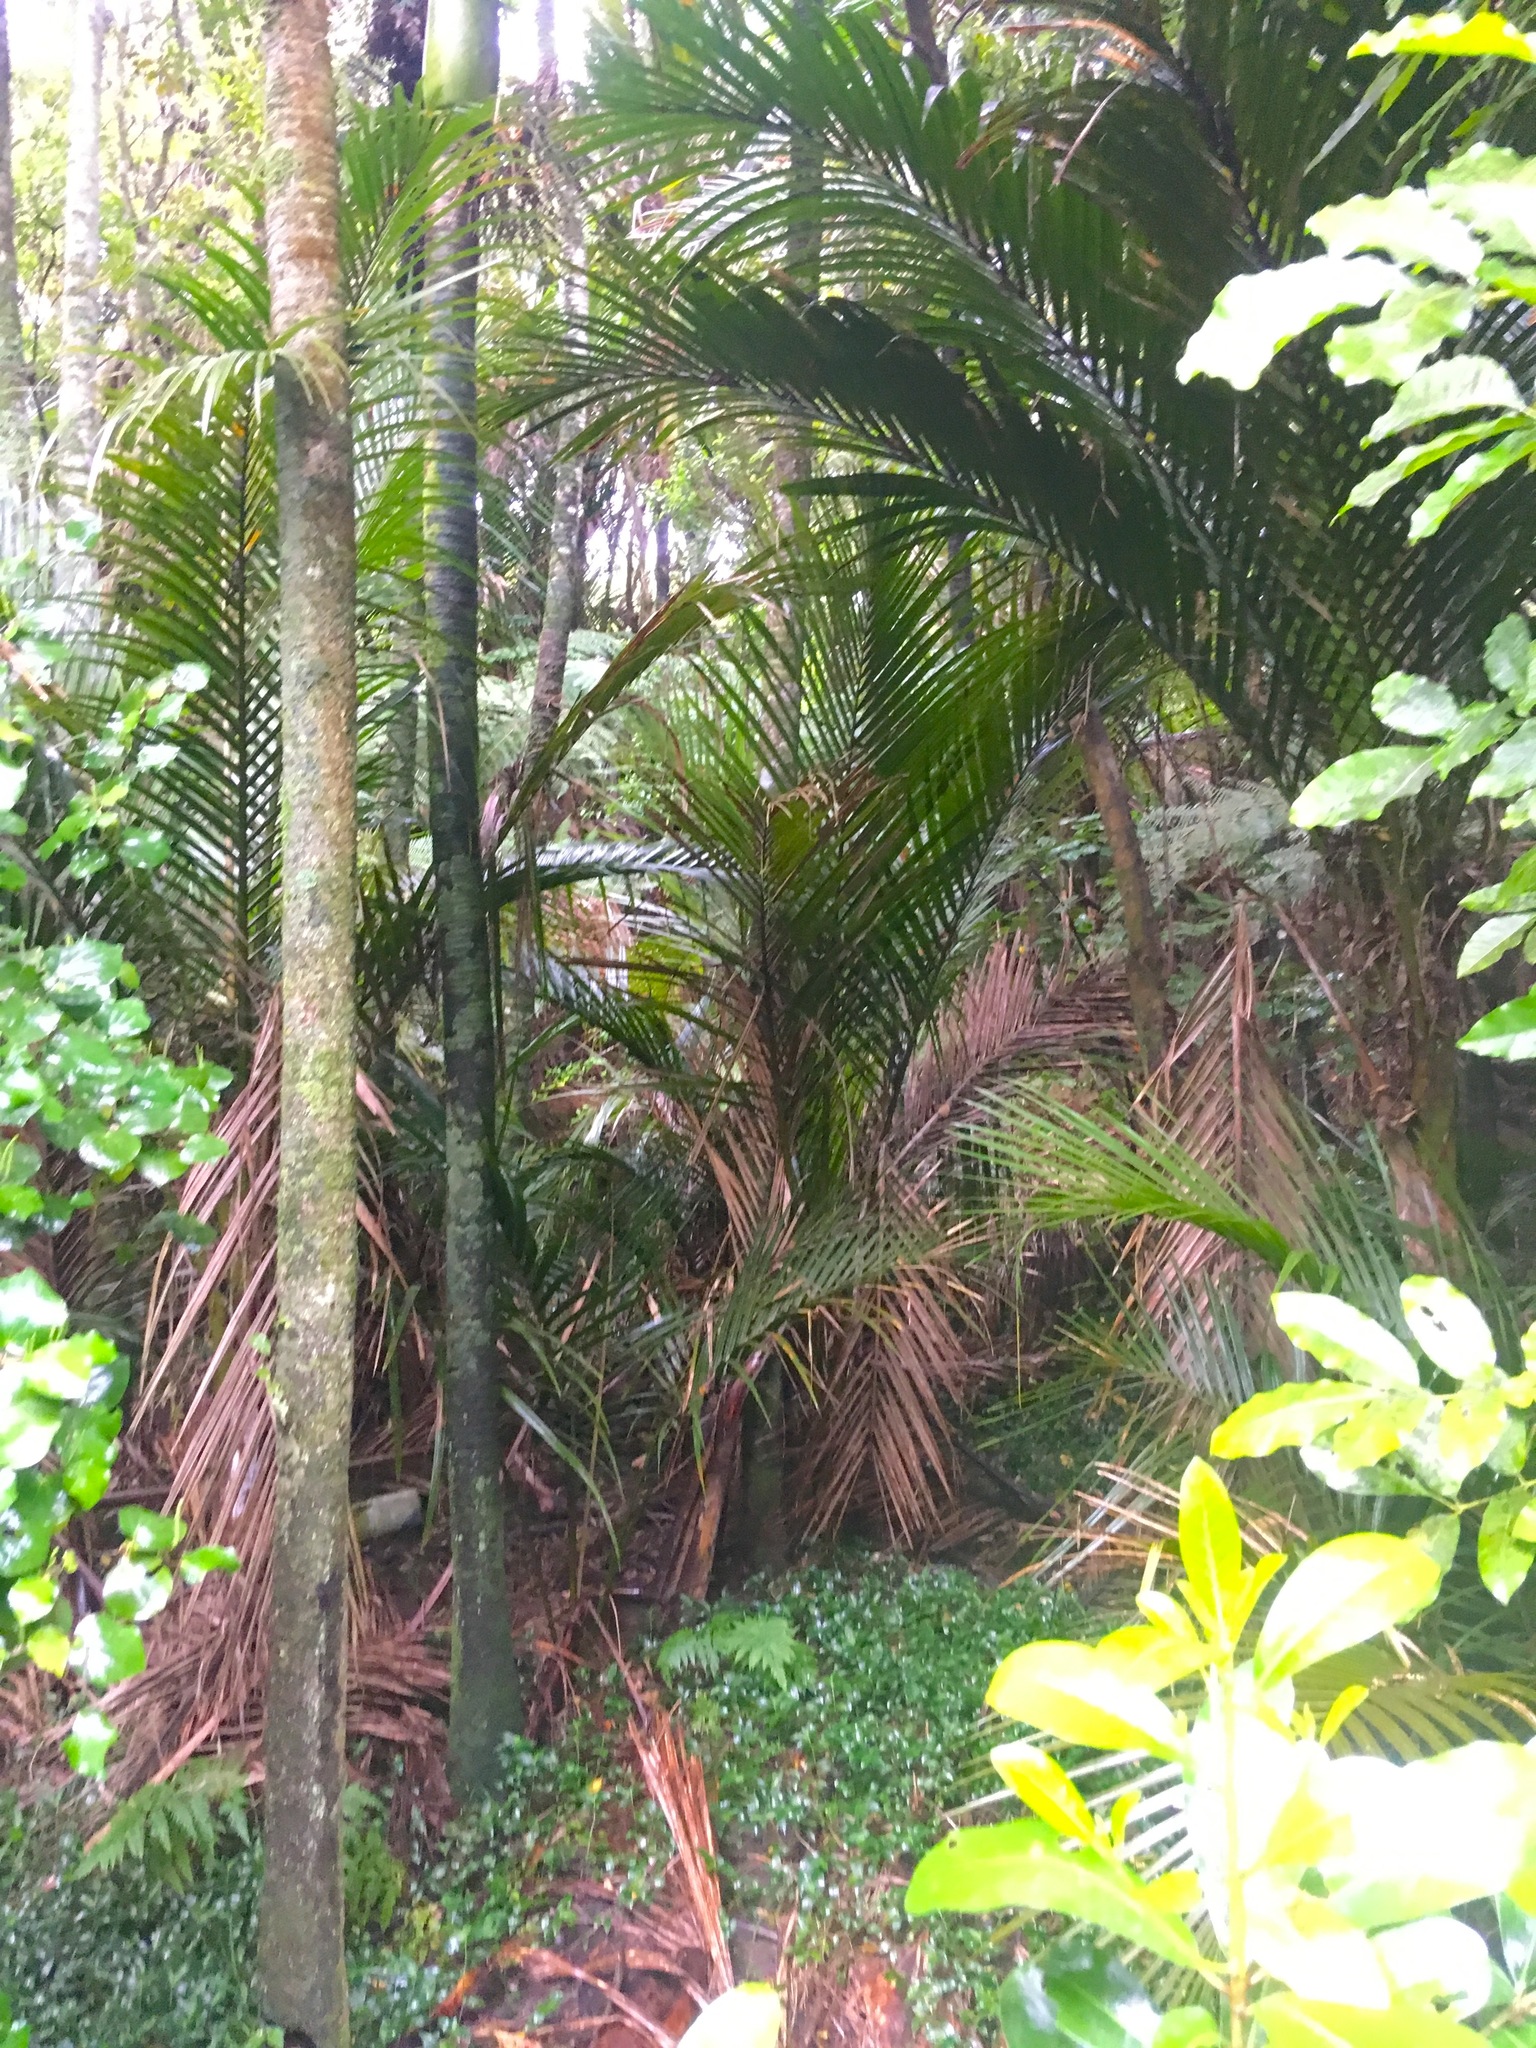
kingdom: Plantae
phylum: Tracheophyta
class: Liliopsida
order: Arecales
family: Arecaceae
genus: Rhopalostylis
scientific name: Rhopalostylis sapida
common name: Feather-duster palm
